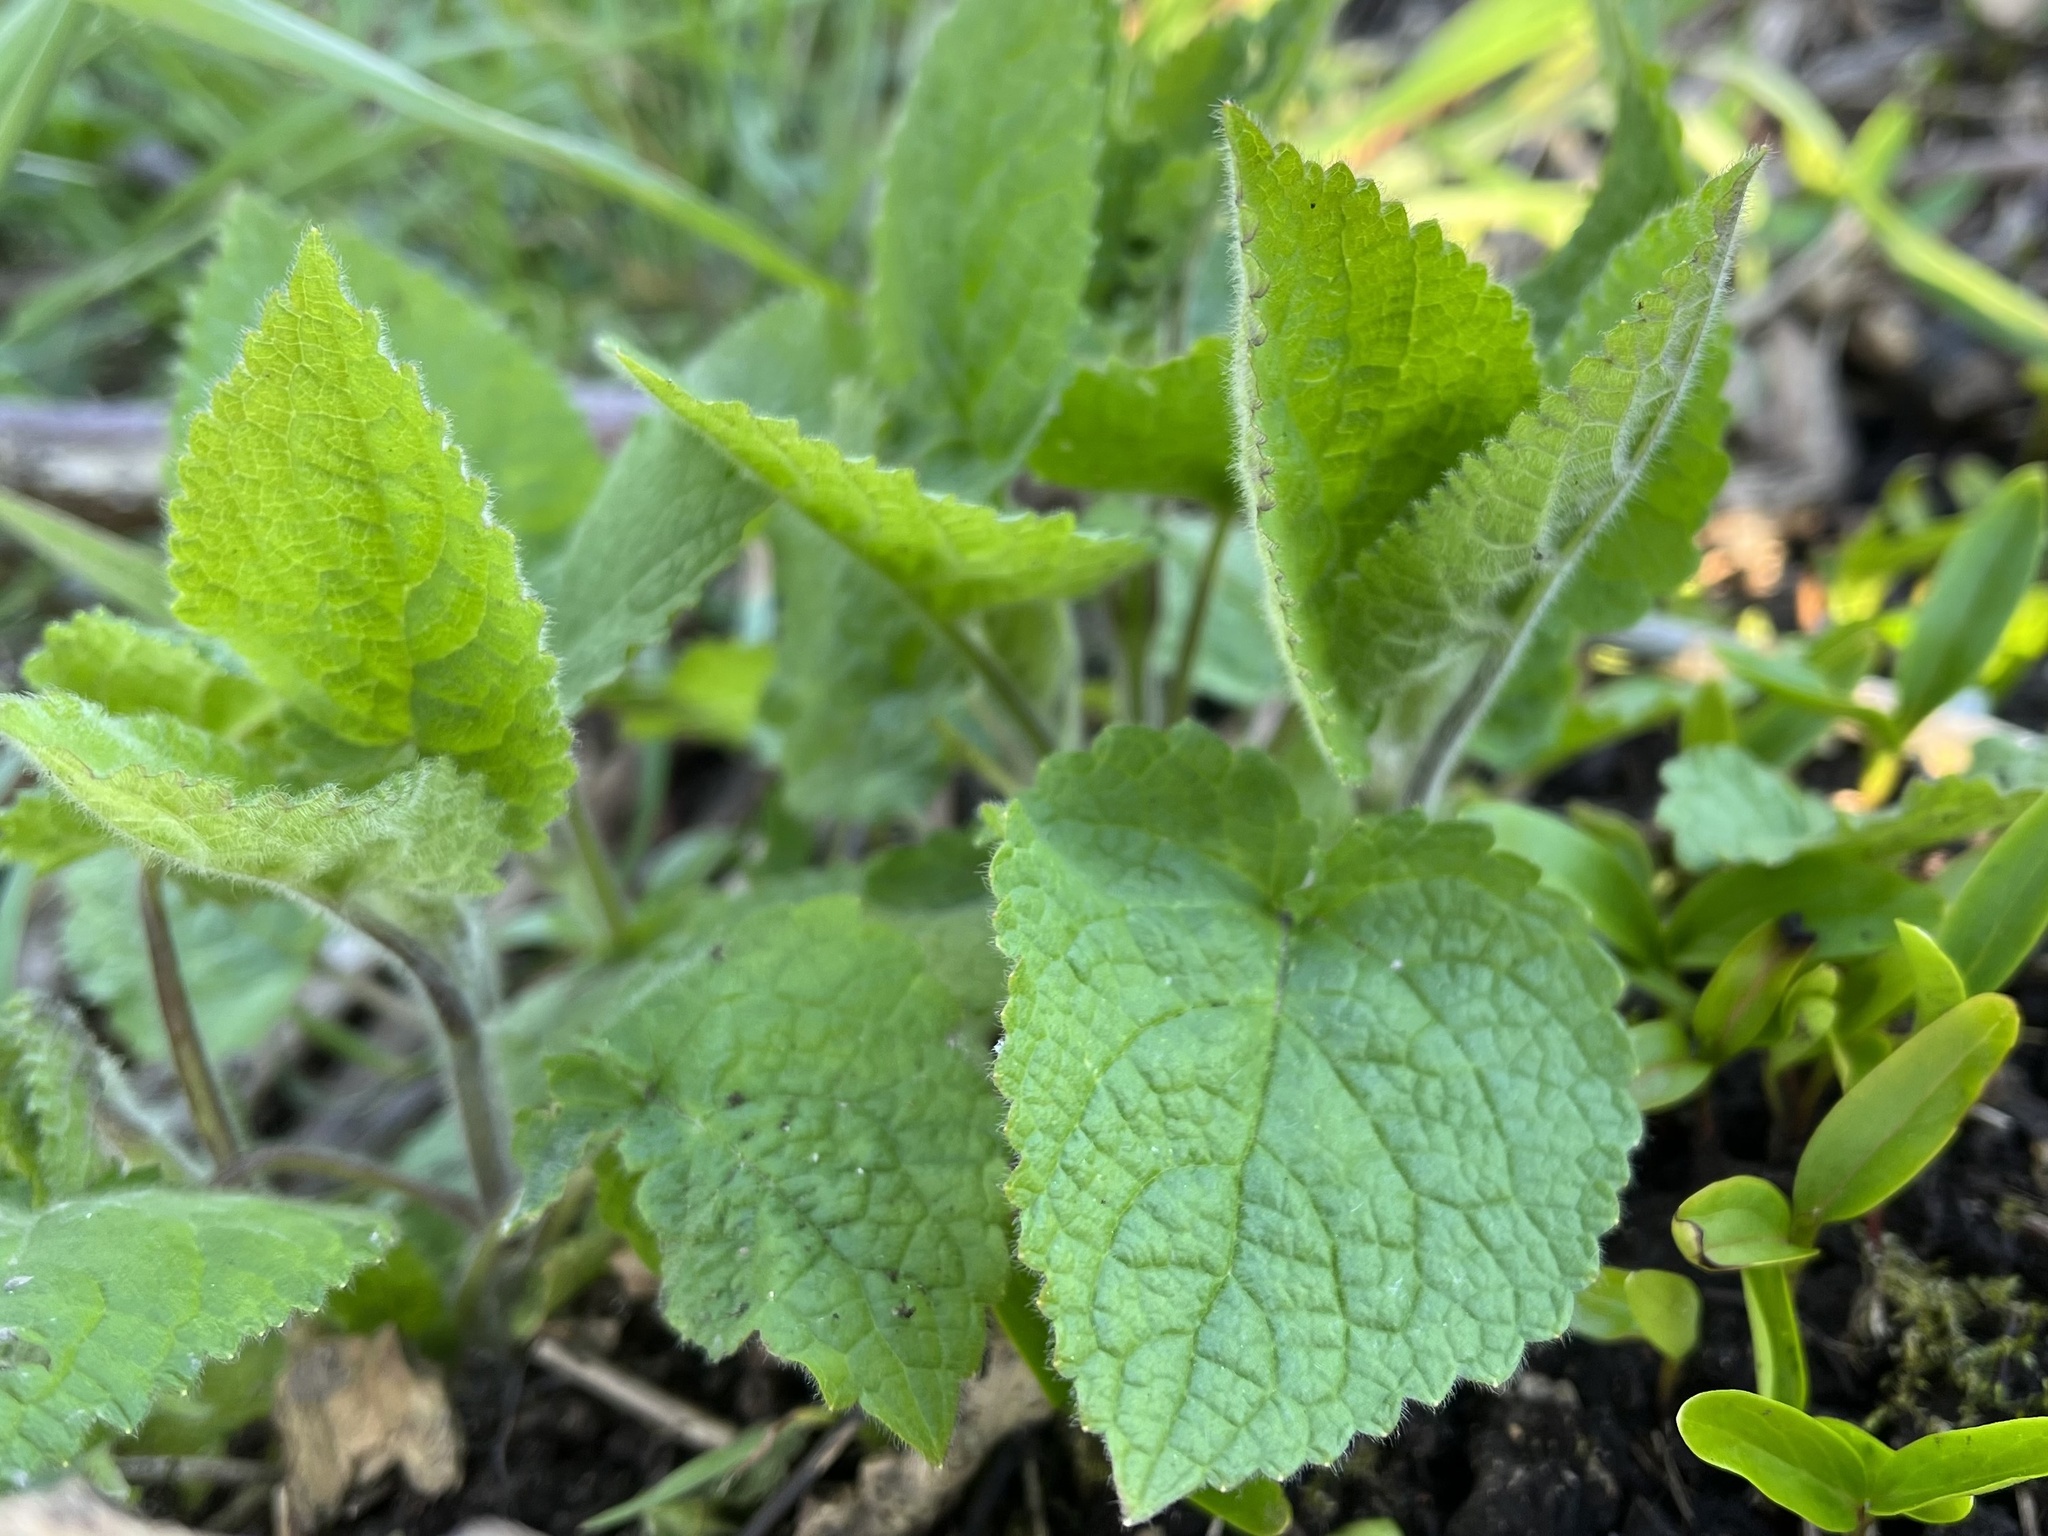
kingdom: Plantae
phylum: Tracheophyta
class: Magnoliopsida
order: Lamiales
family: Lamiaceae
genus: Stachys
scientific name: Stachys sylvatica
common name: Hedge woundwort
